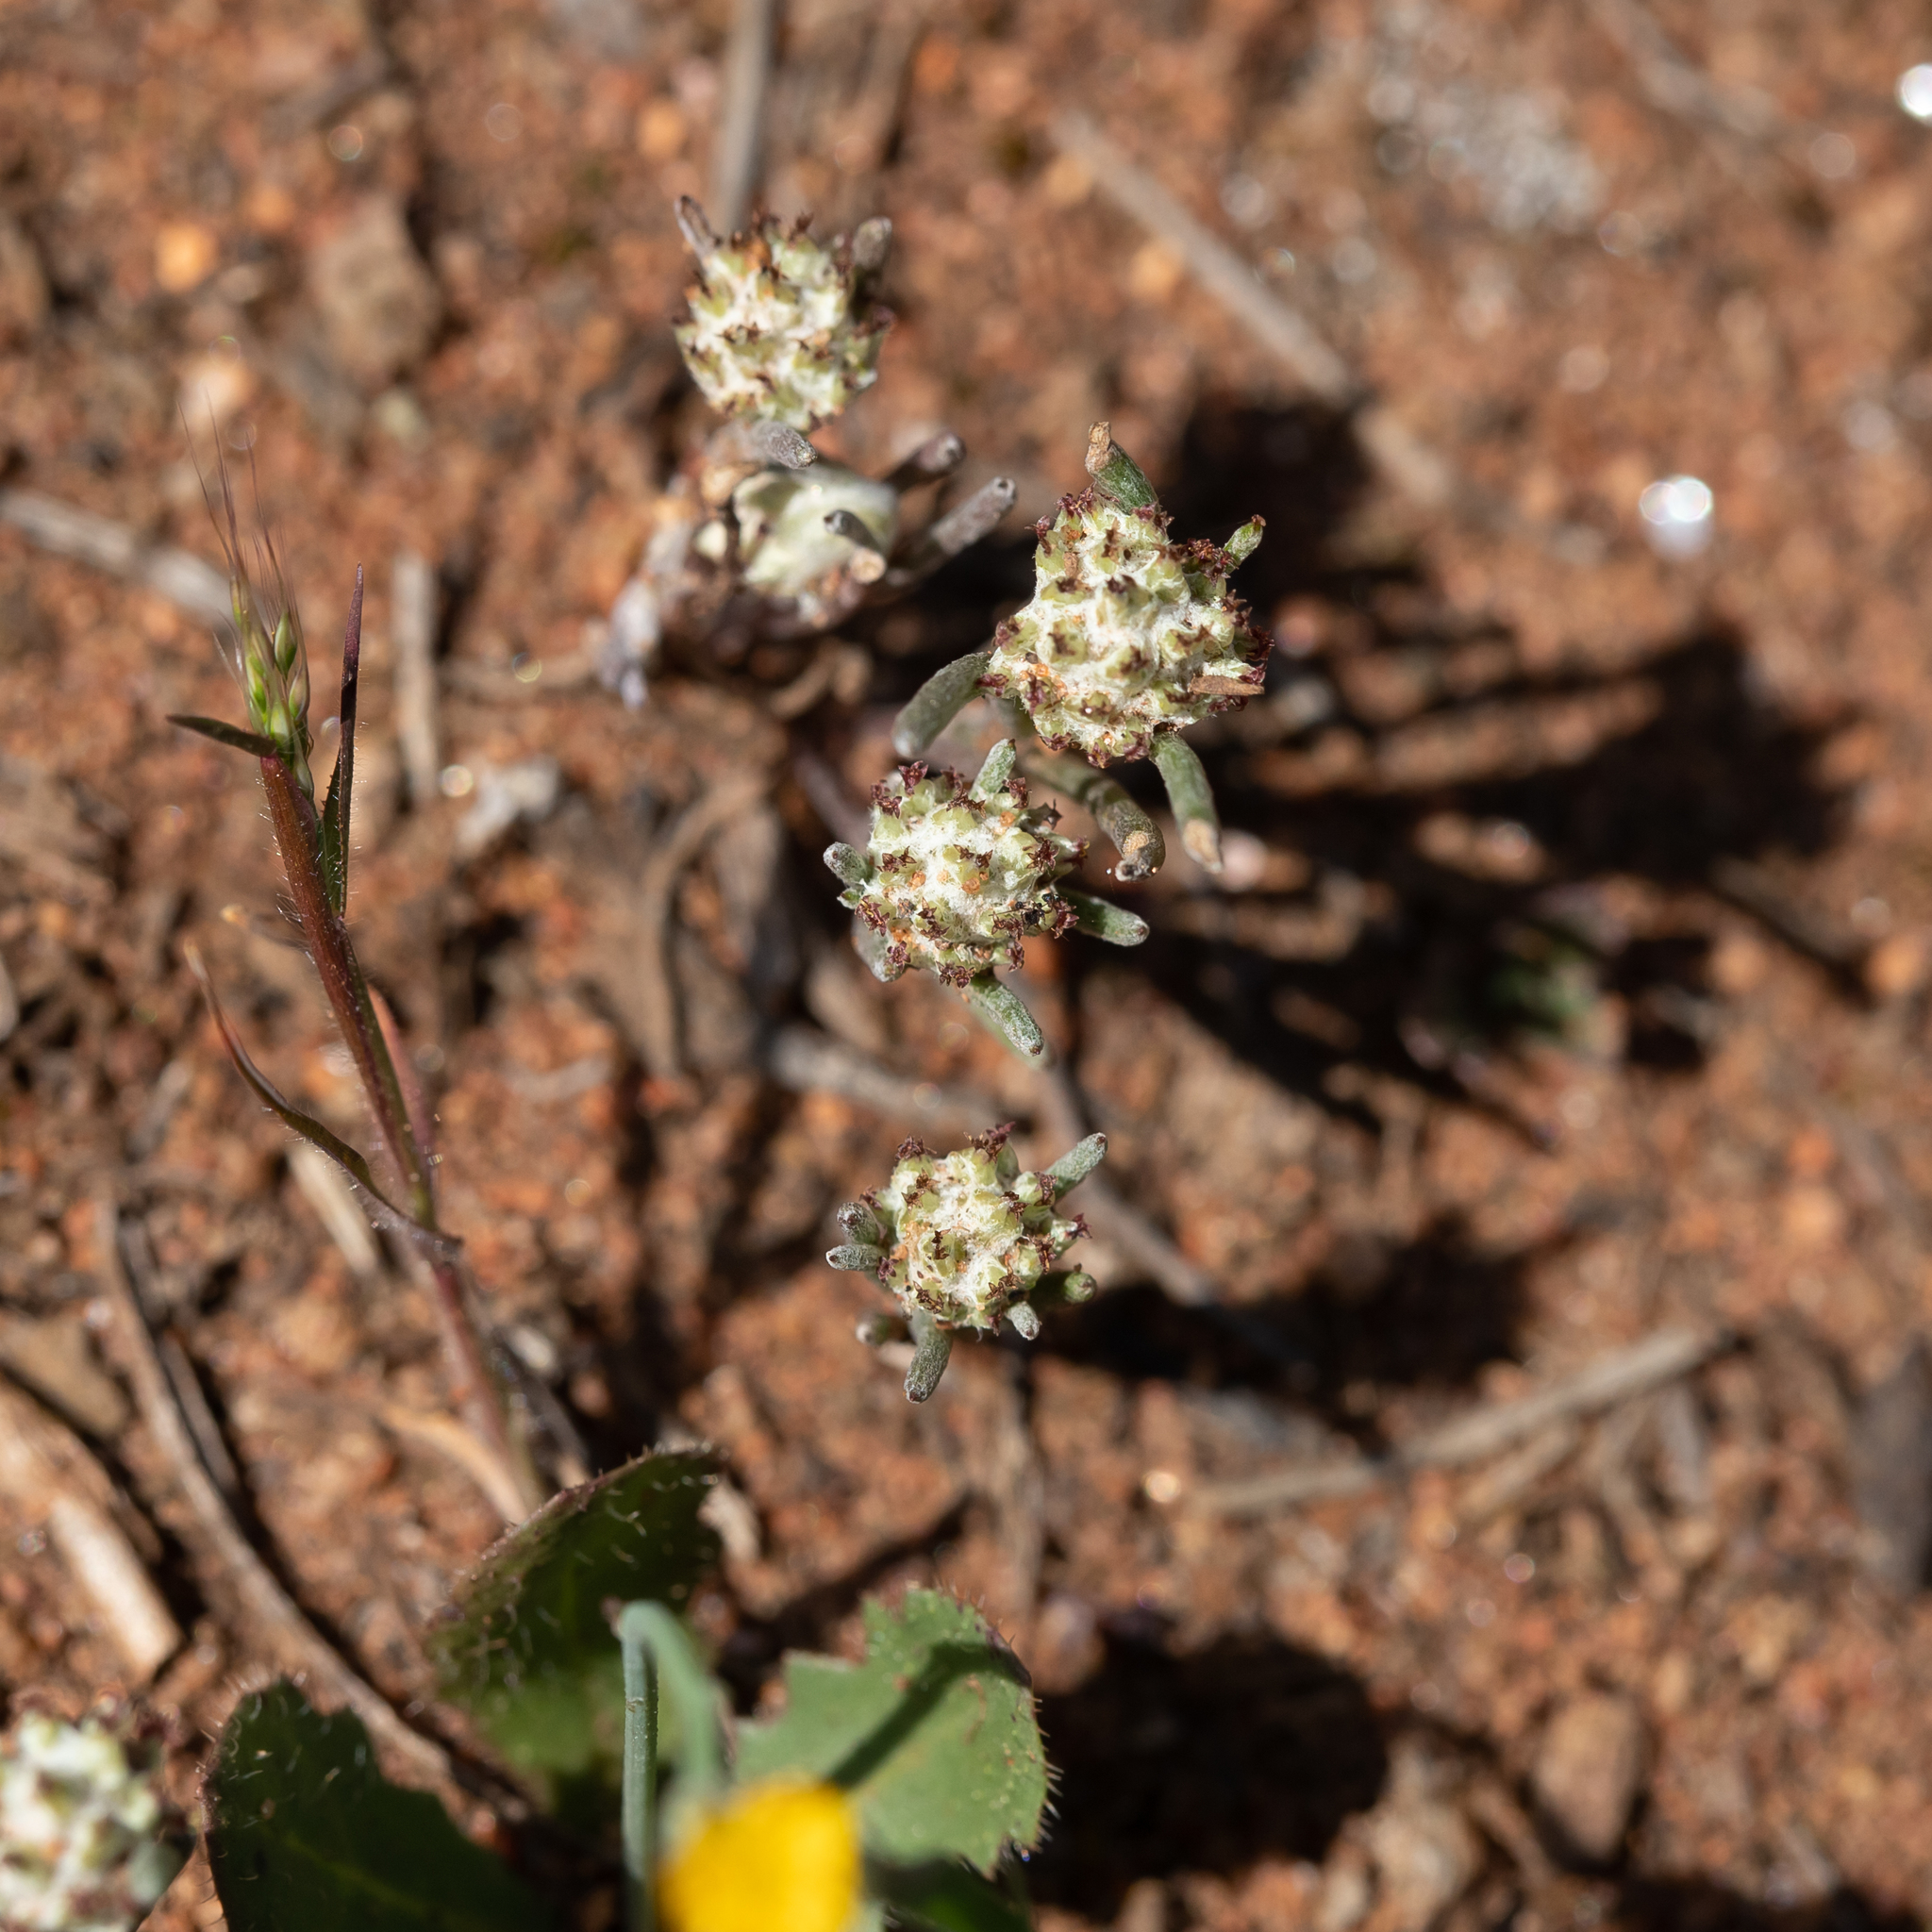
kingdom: Plantae
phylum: Tracheophyta
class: Magnoliopsida
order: Asterales
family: Asteraceae
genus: Blennospora
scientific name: Blennospora drummondii
